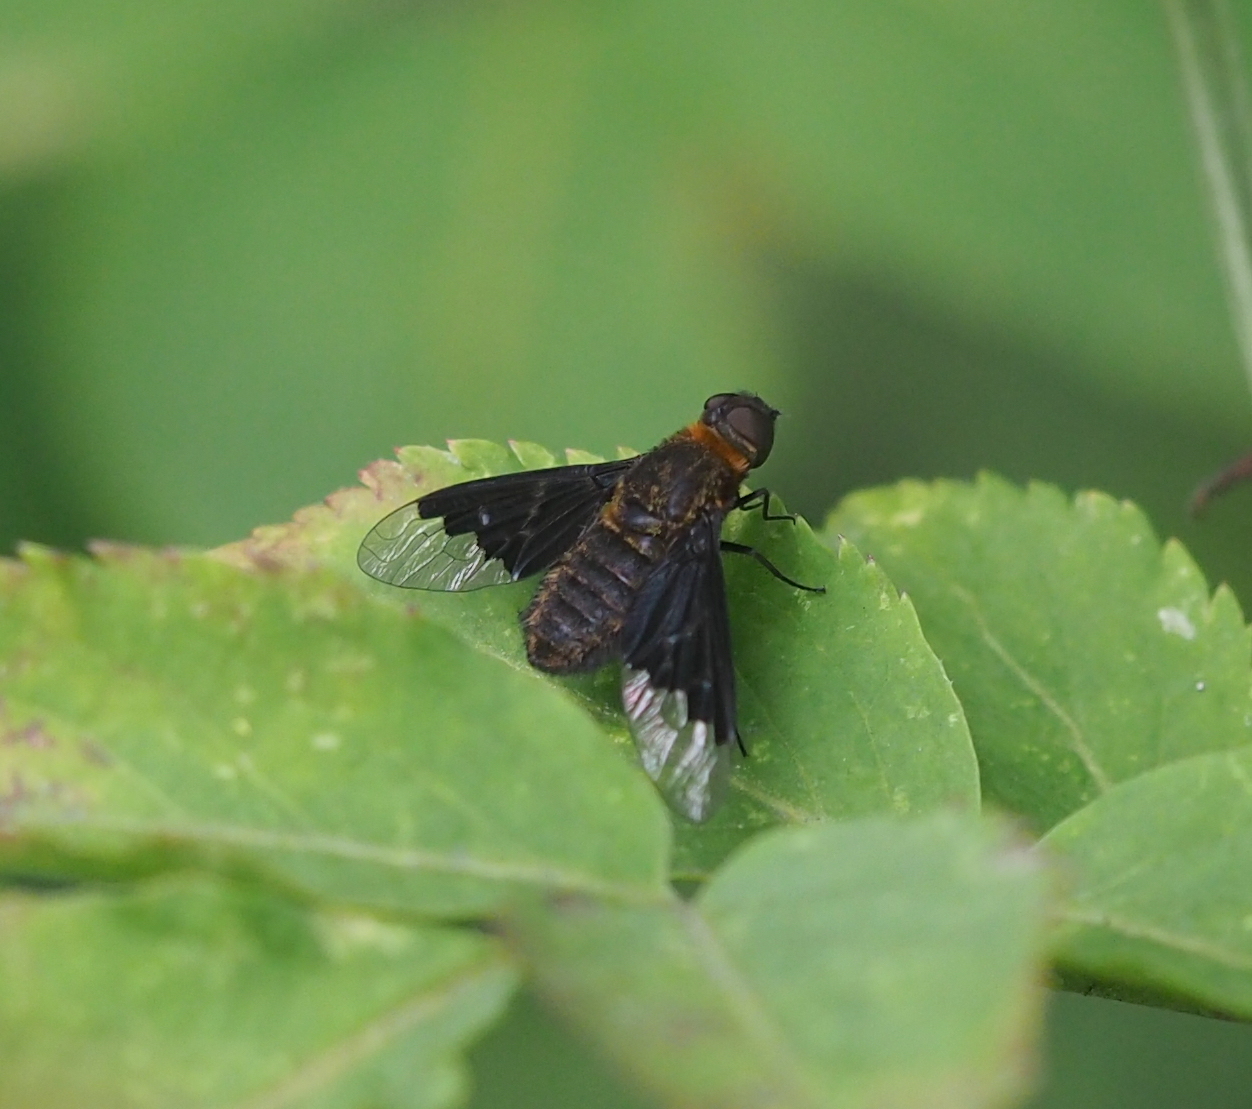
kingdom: Animalia
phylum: Arthropoda
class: Insecta
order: Diptera
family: Bombyliidae
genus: Hemipenthes
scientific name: Hemipenthes morio
